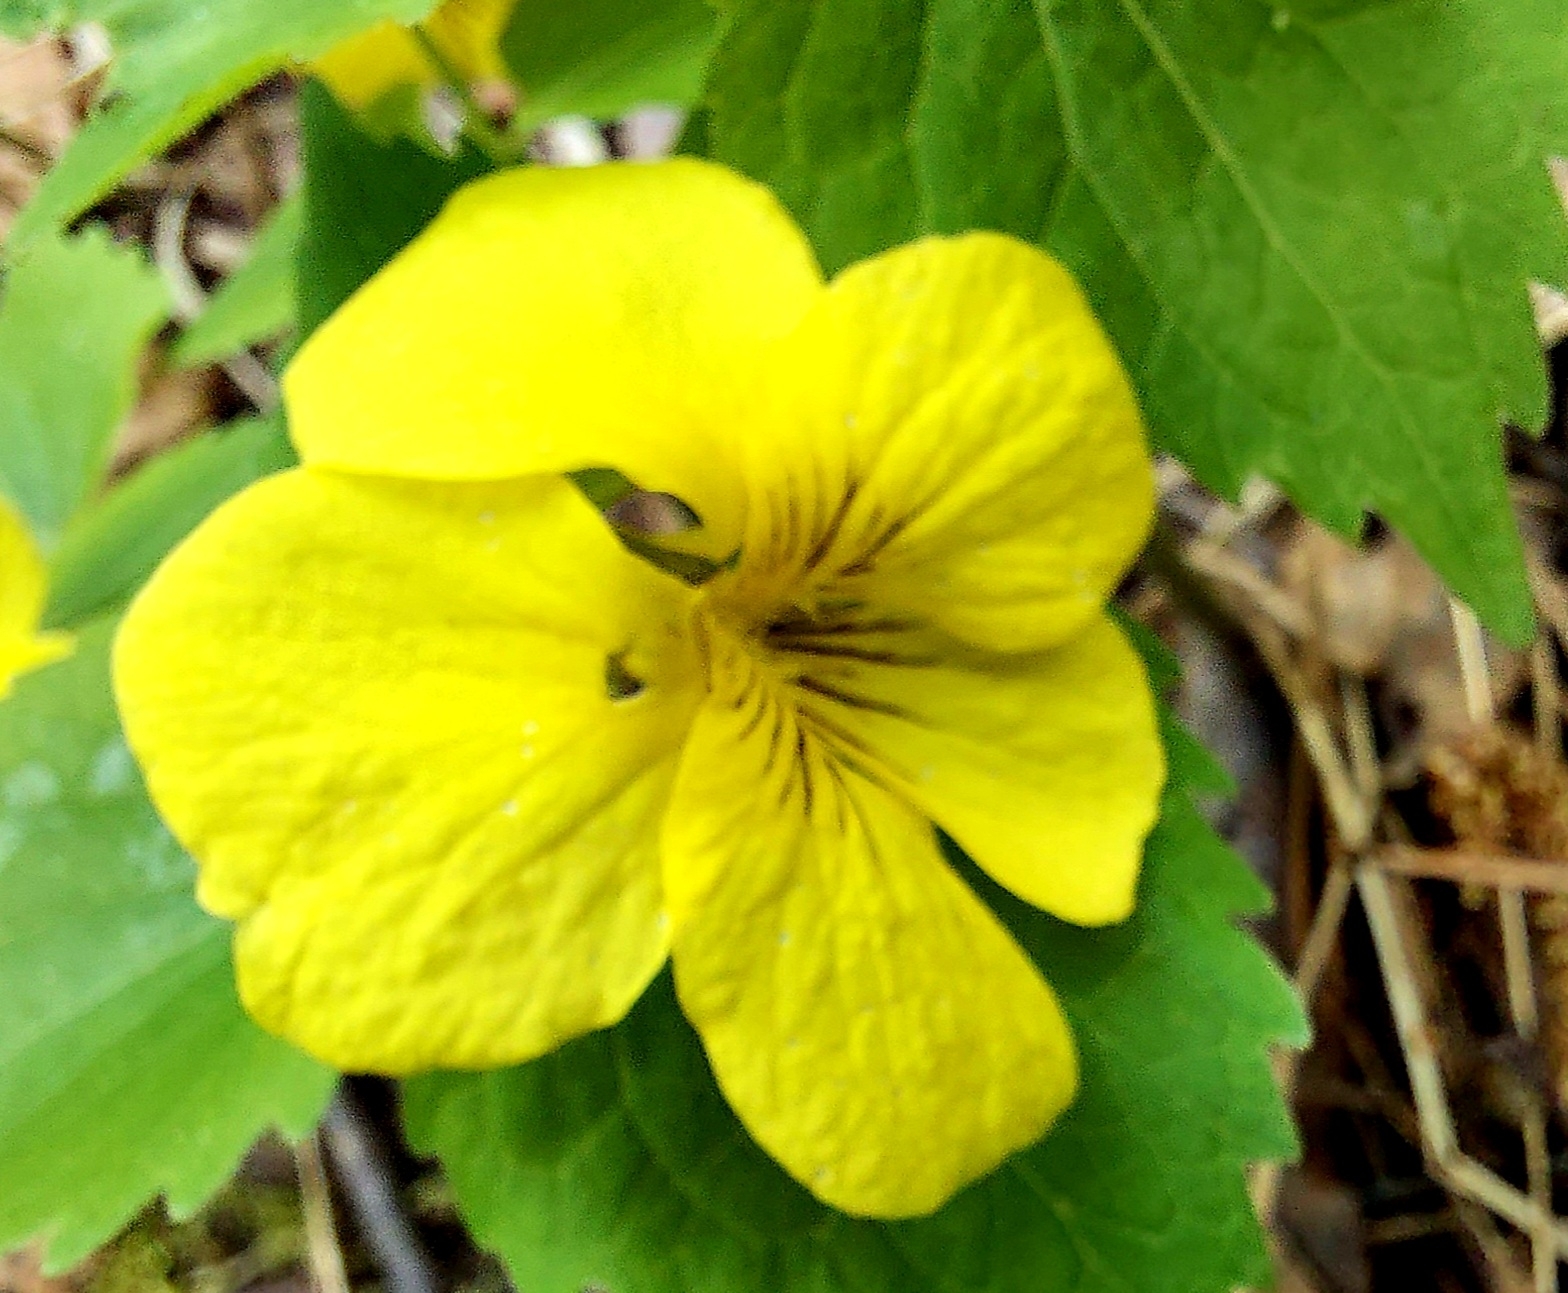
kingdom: Plantae
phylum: Tracheophyta
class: Magnoliopsida
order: Malpighiales
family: Violaceae
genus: Viola
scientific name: Viola uniflora
